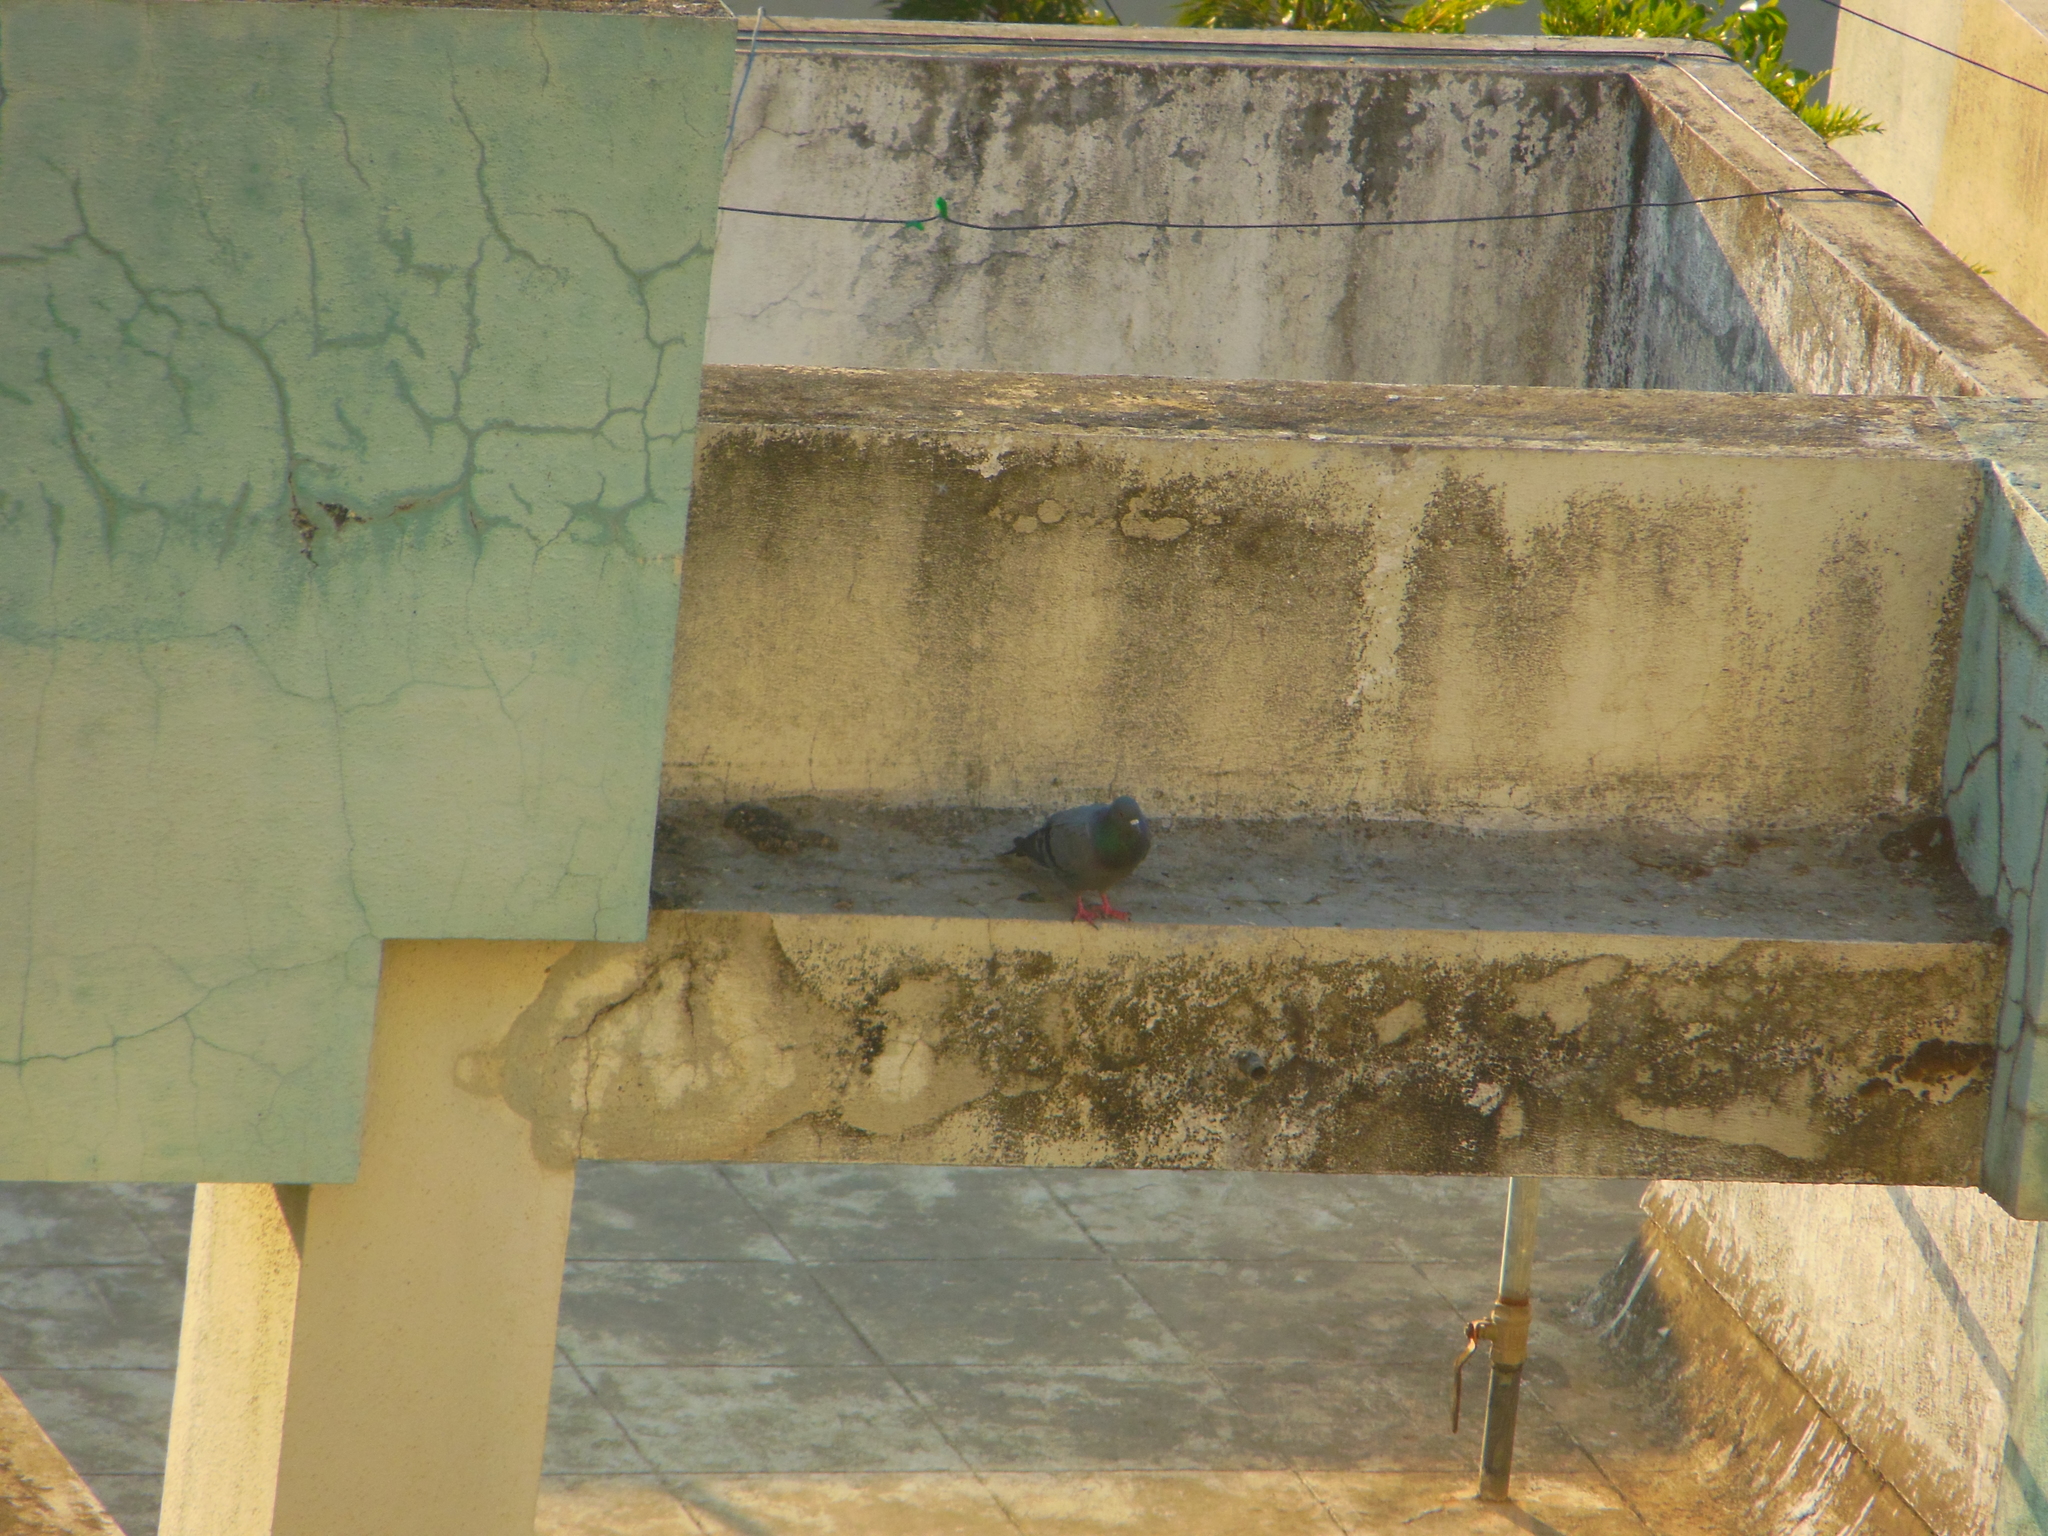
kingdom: Animalia
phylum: Chordata
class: Aves
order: Columbiformes
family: Columbidae
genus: Columba
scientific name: Columba livia
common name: Rock pigeon
